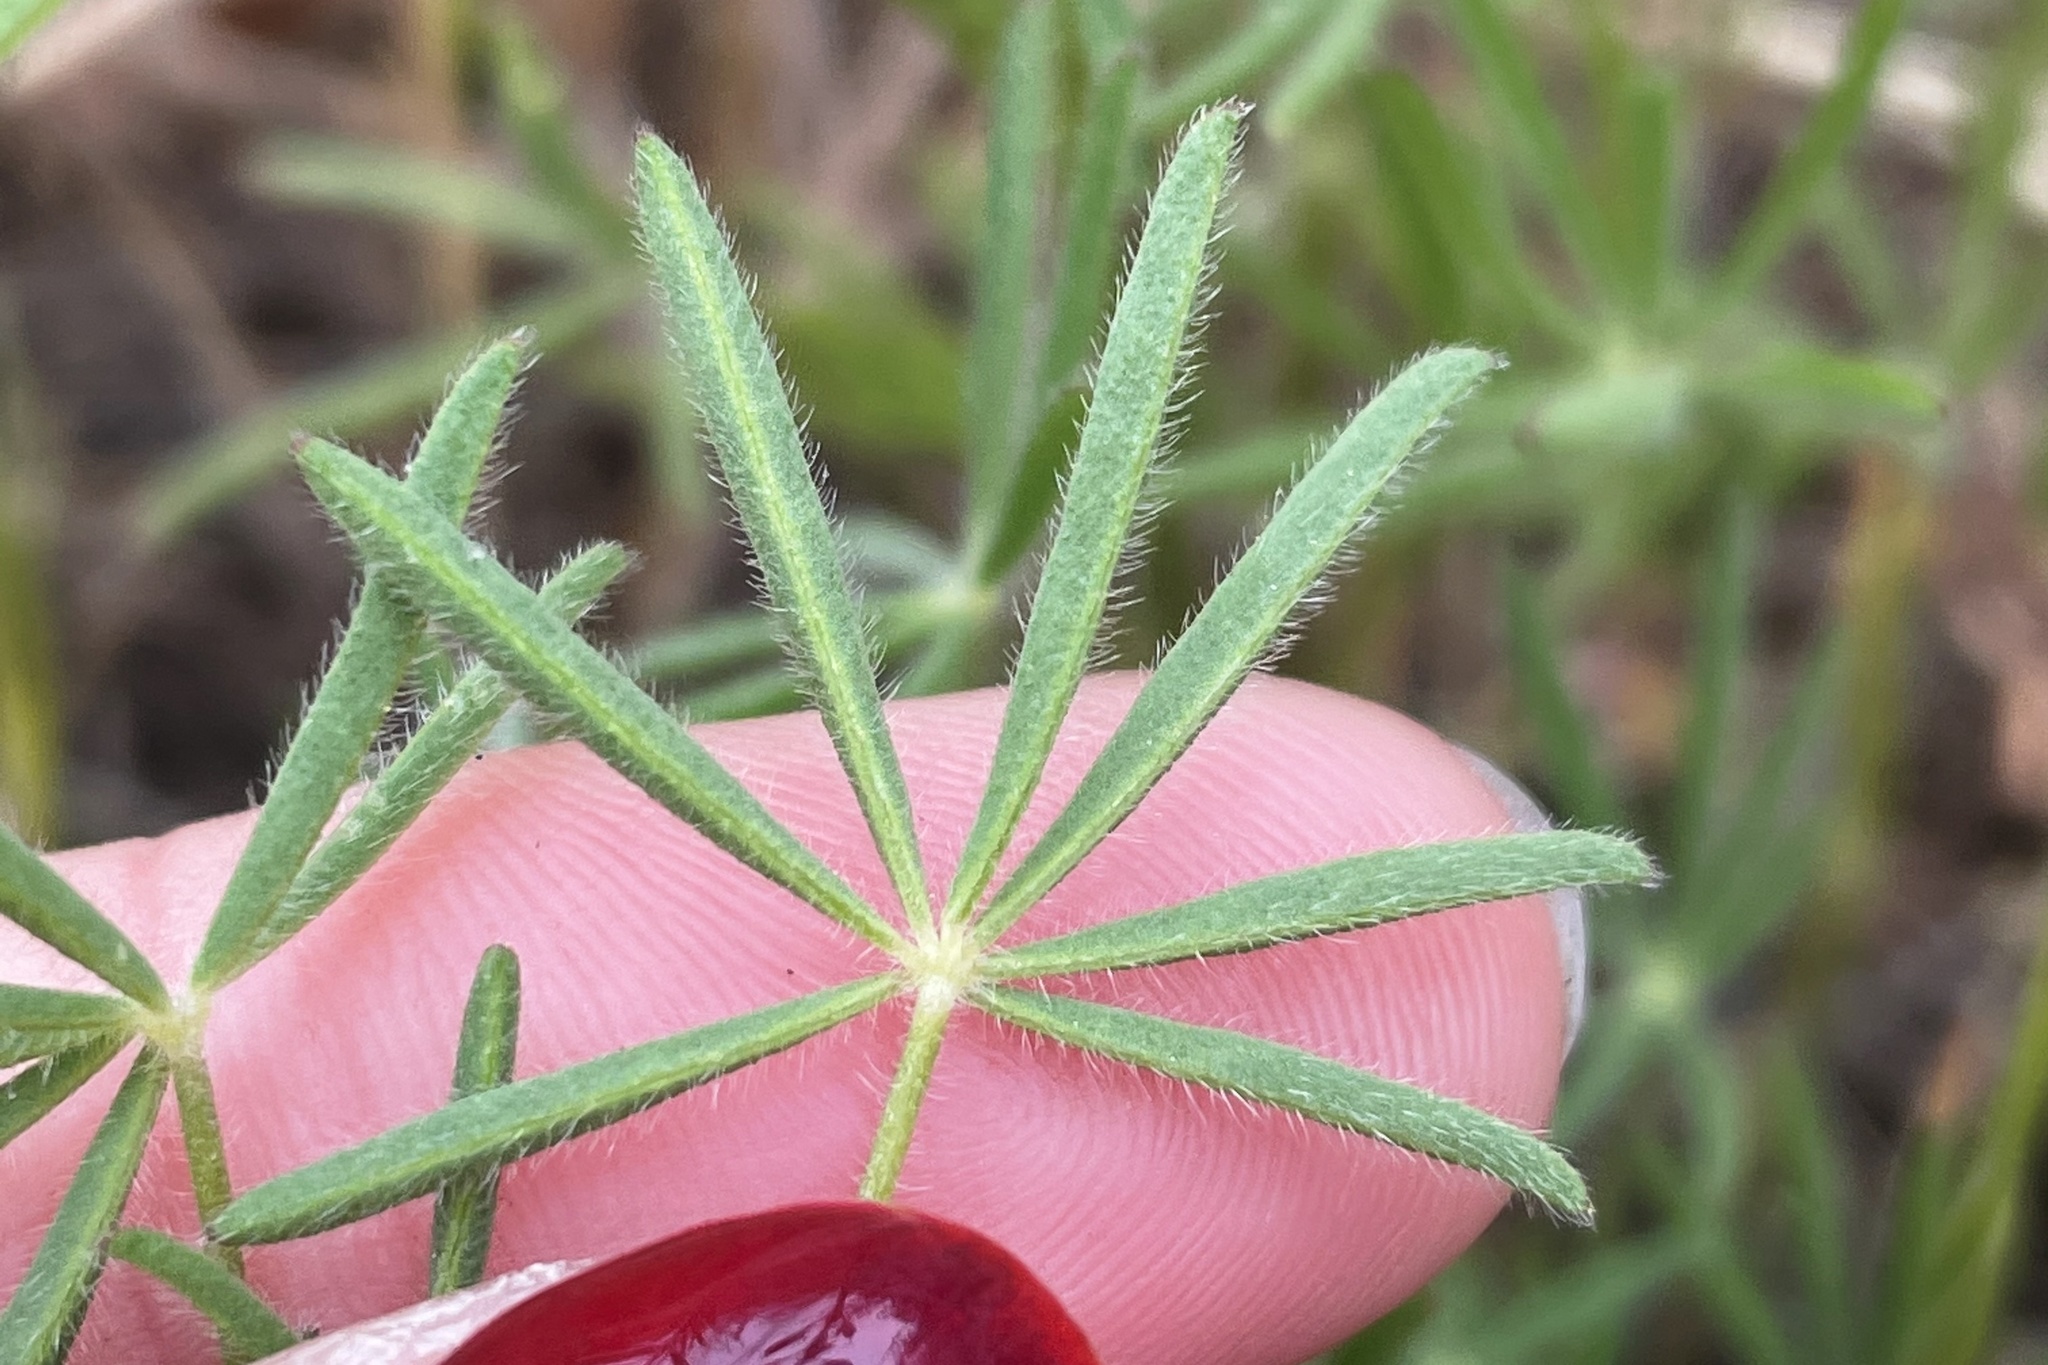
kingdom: Plantae
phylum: Tracheophyta
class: Magnoliopsida
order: Fabales
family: Fabaceae
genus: Lupinus
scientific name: Lupinus bicolor
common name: Miniature lupine
